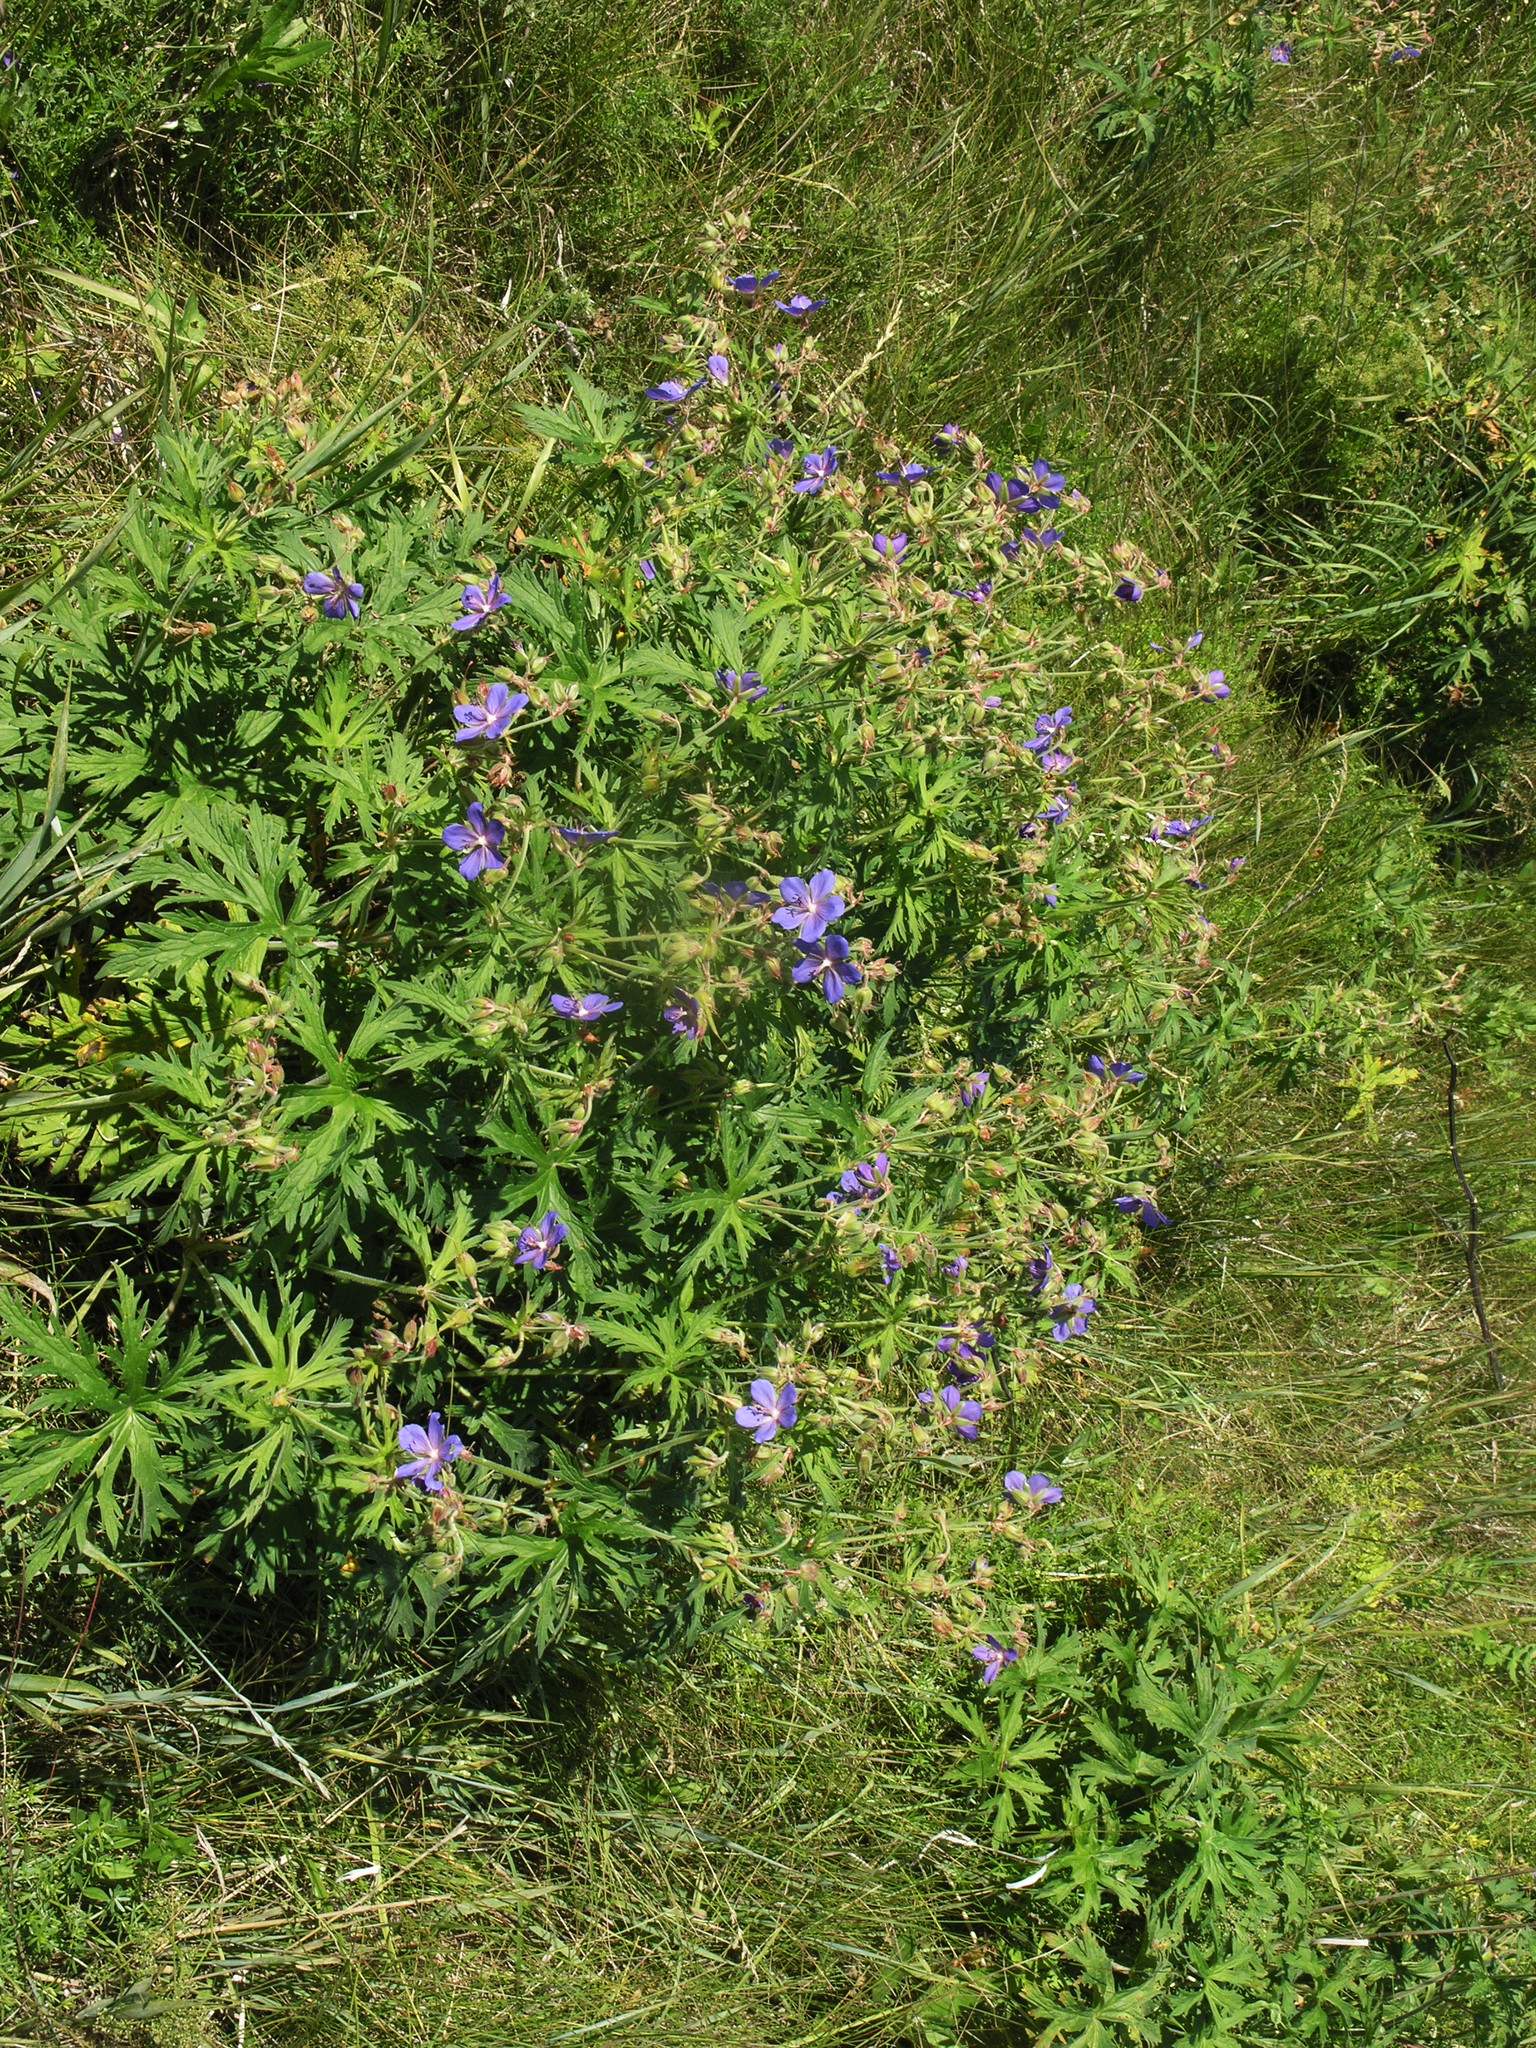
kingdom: Plantae
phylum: Tracheophyta
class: Magnoliopsida
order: Geraniales
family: Geraniaceae
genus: Geranium
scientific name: Geranium pratense
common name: Meadow crane's-bill
